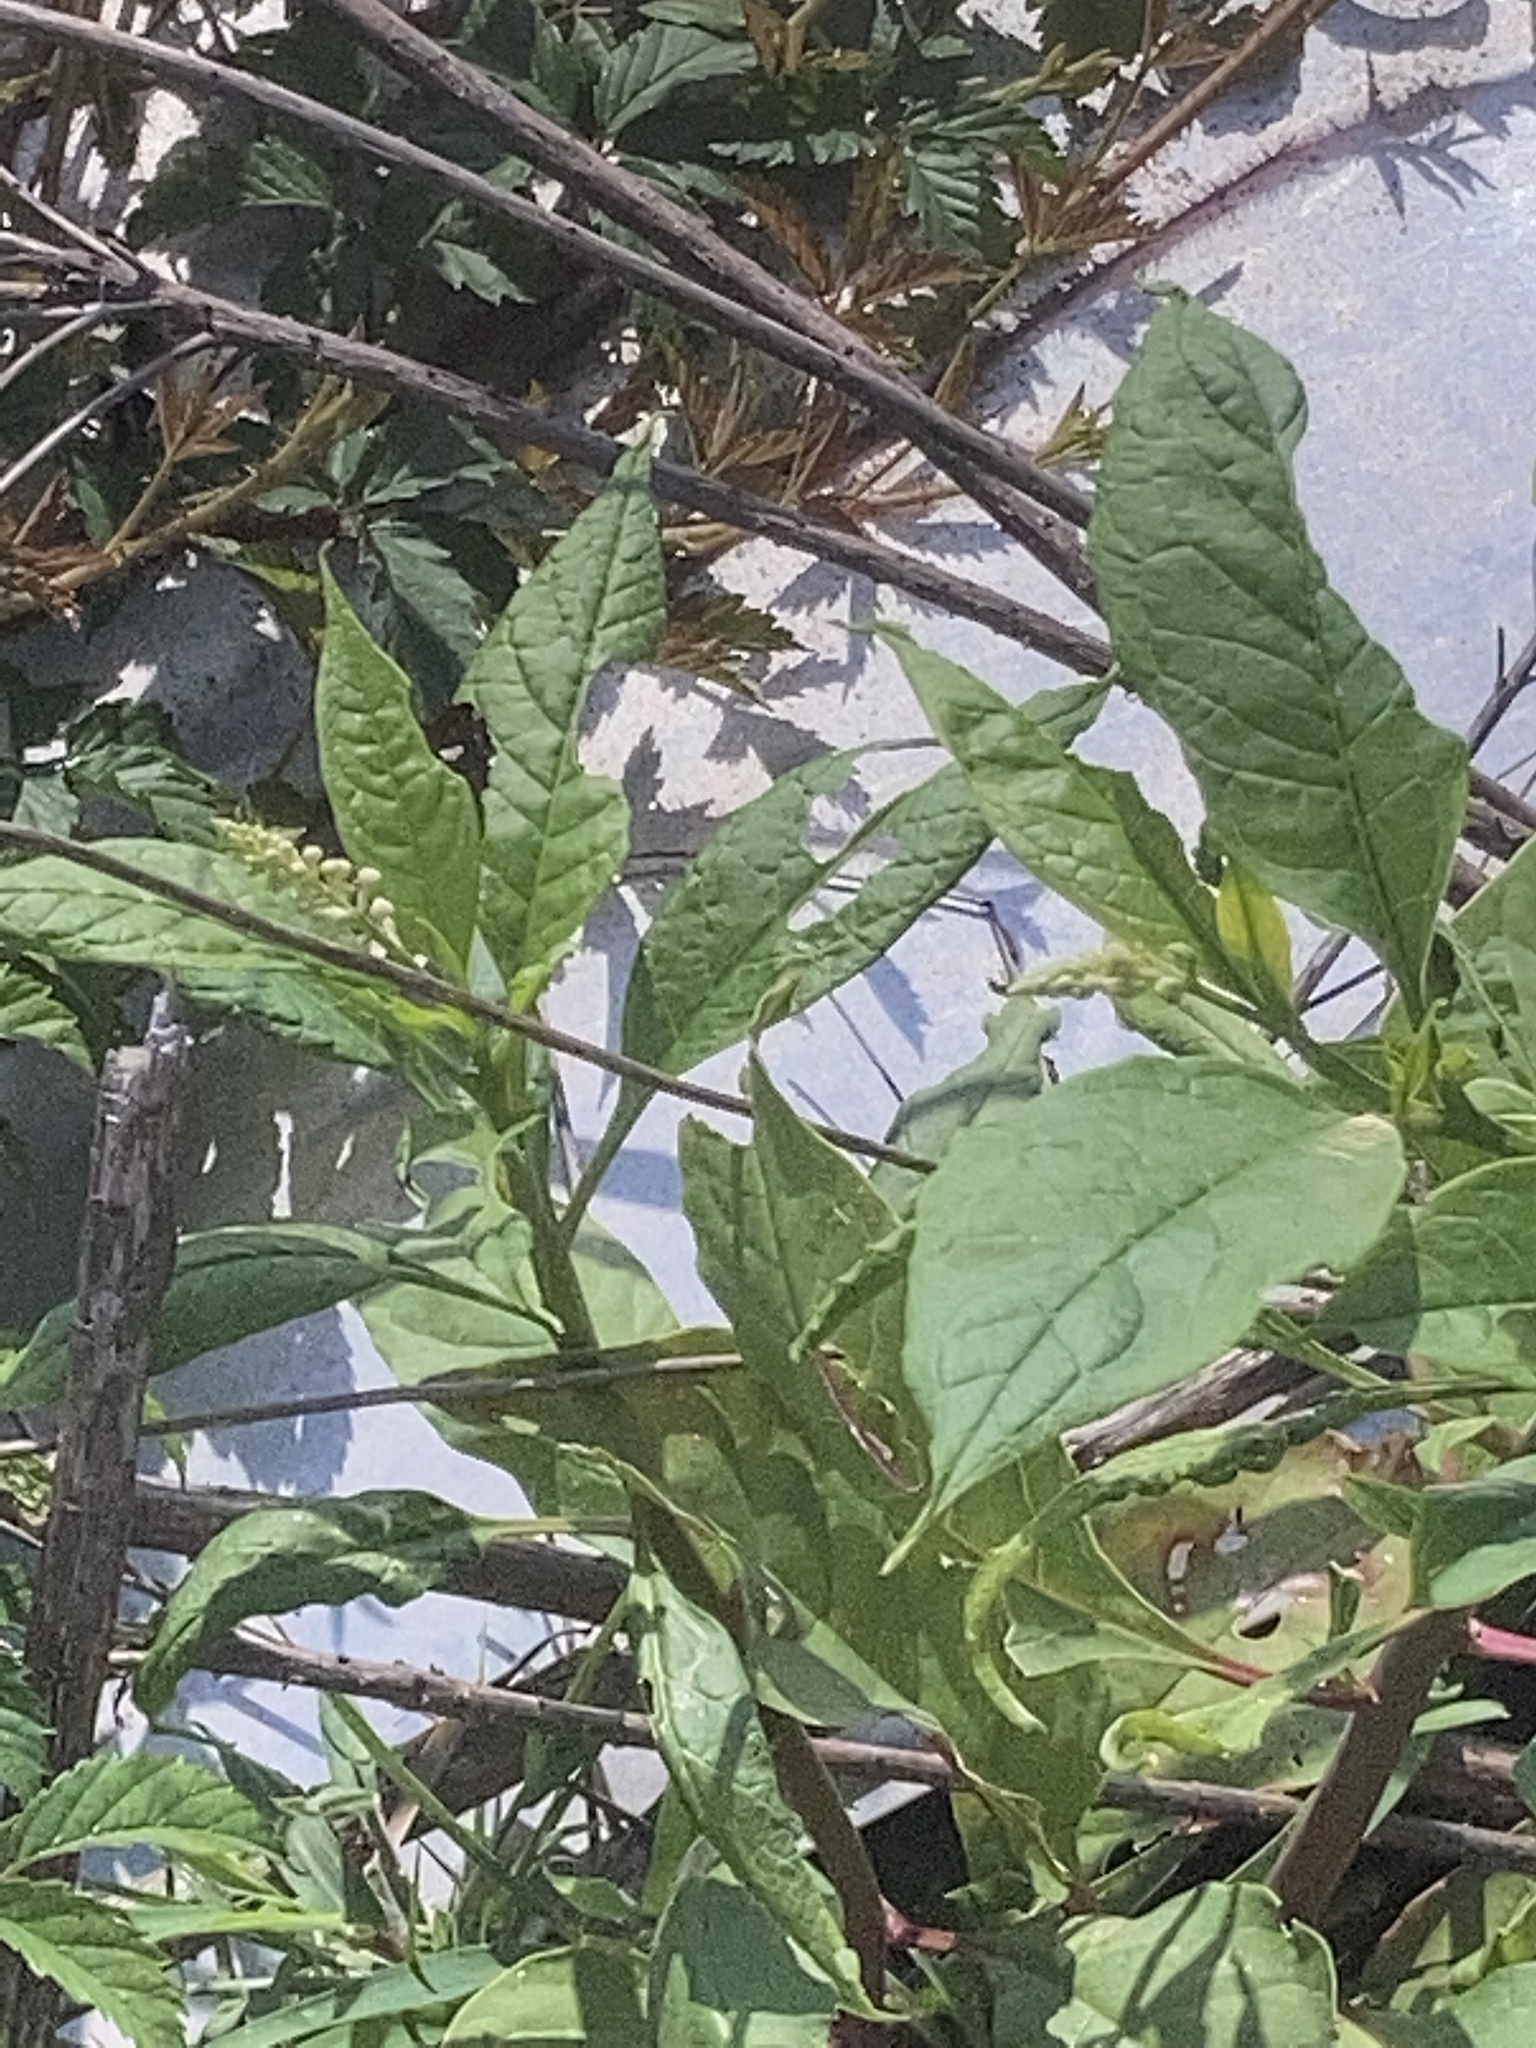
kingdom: Plantae
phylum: Tracheophyta
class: Magnoliopsida
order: Caryophyllales
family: Phytolaccaceae
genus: Phytolacca
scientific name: Phytolacca americana
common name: American pokeweed
